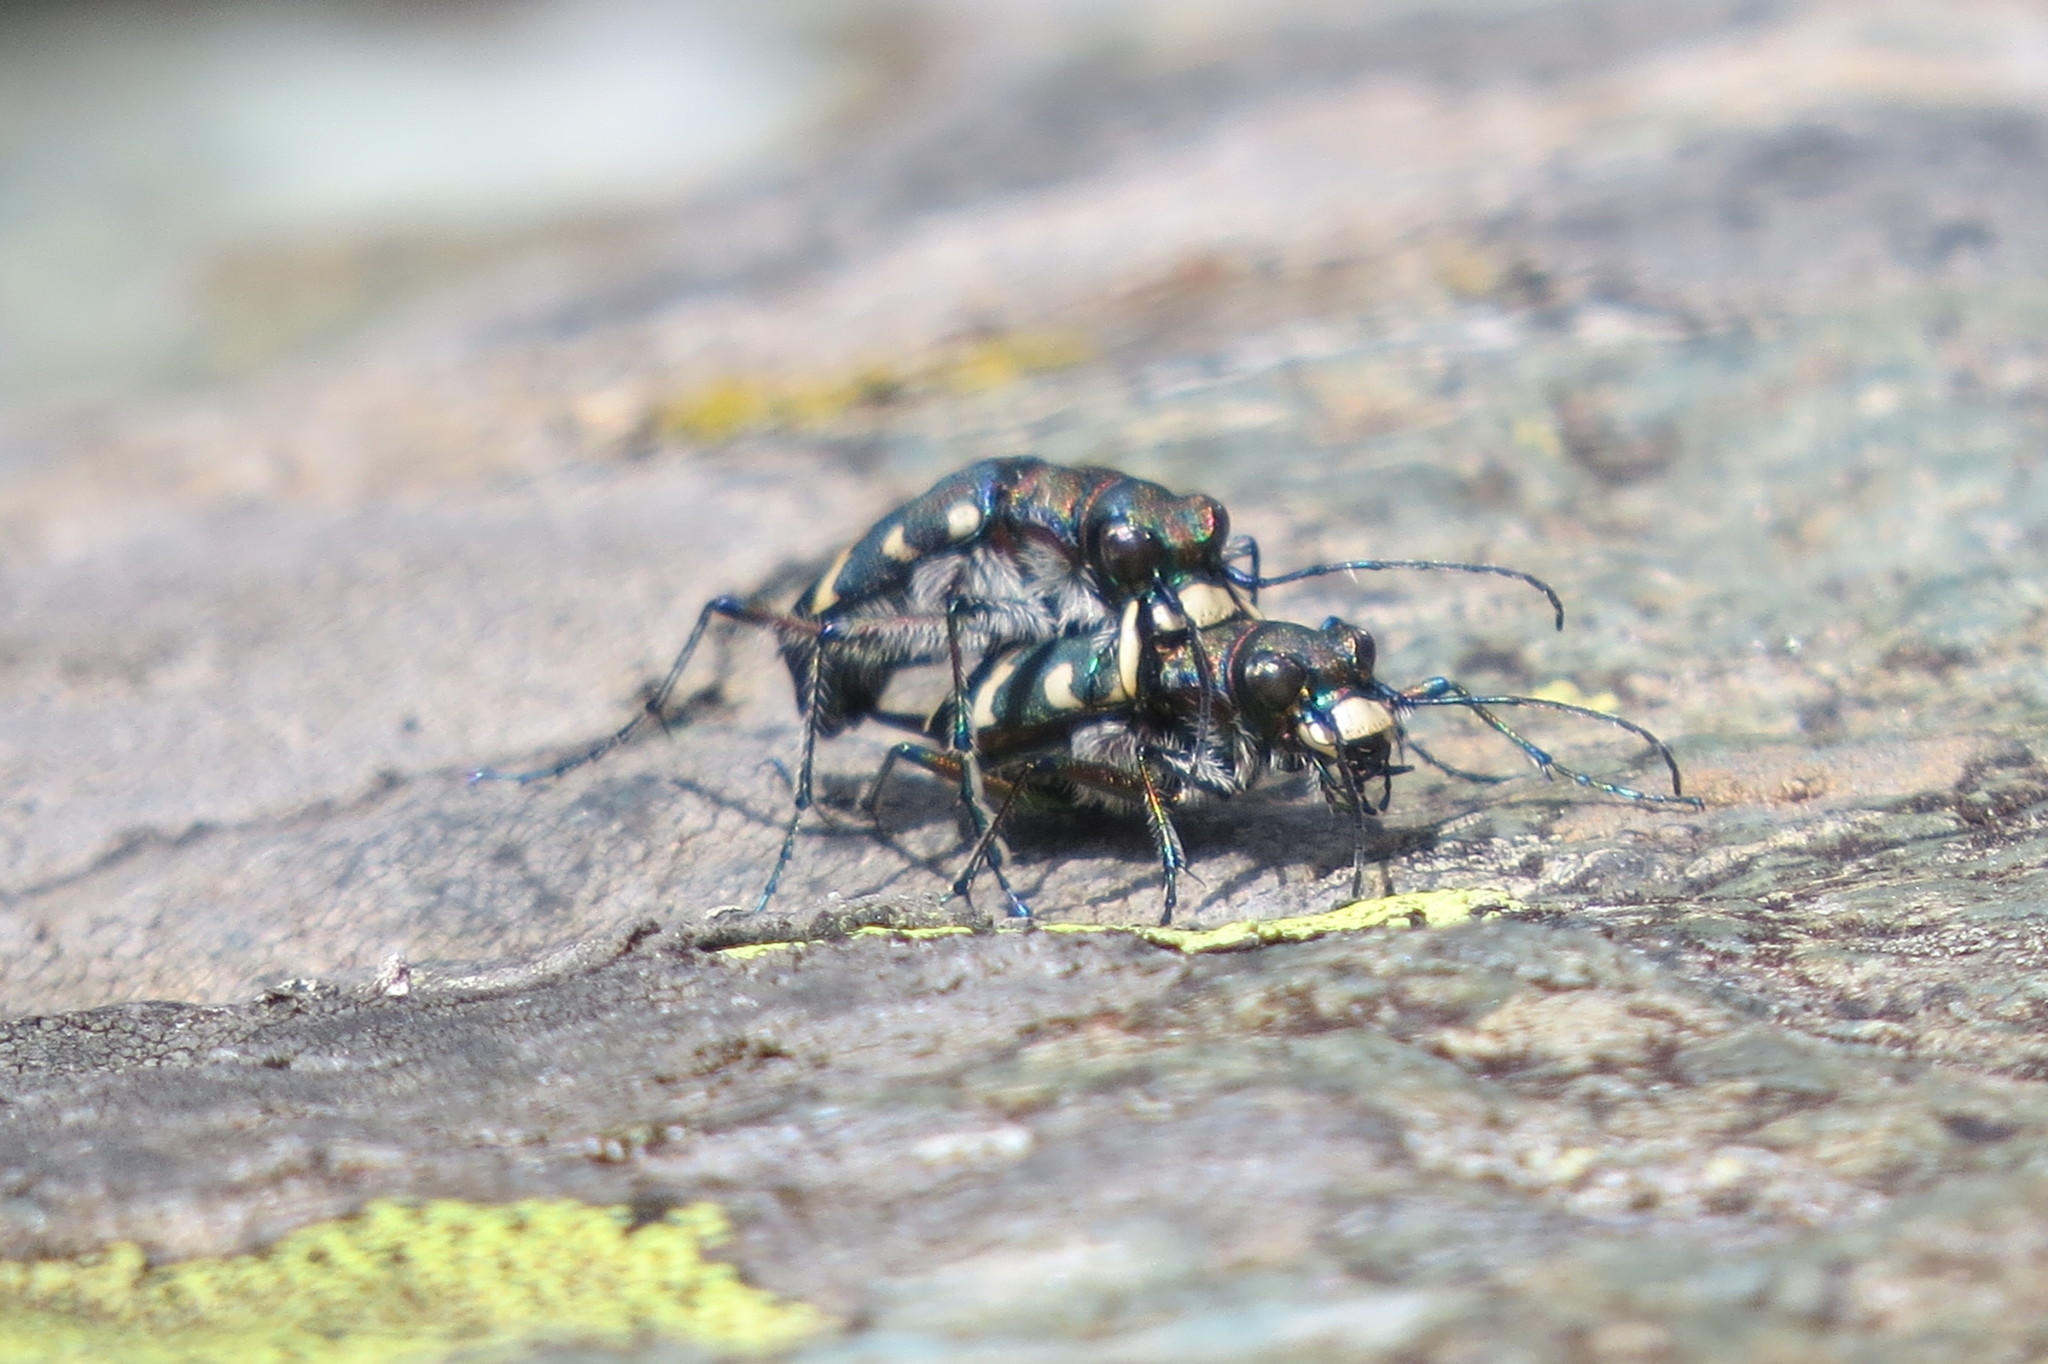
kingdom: Animalia
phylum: Arthropoda
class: Insecta
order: Coleoptera
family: Carabidae
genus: Cicindela
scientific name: Cicindela hybrida
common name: Northern dune tiger beetle
